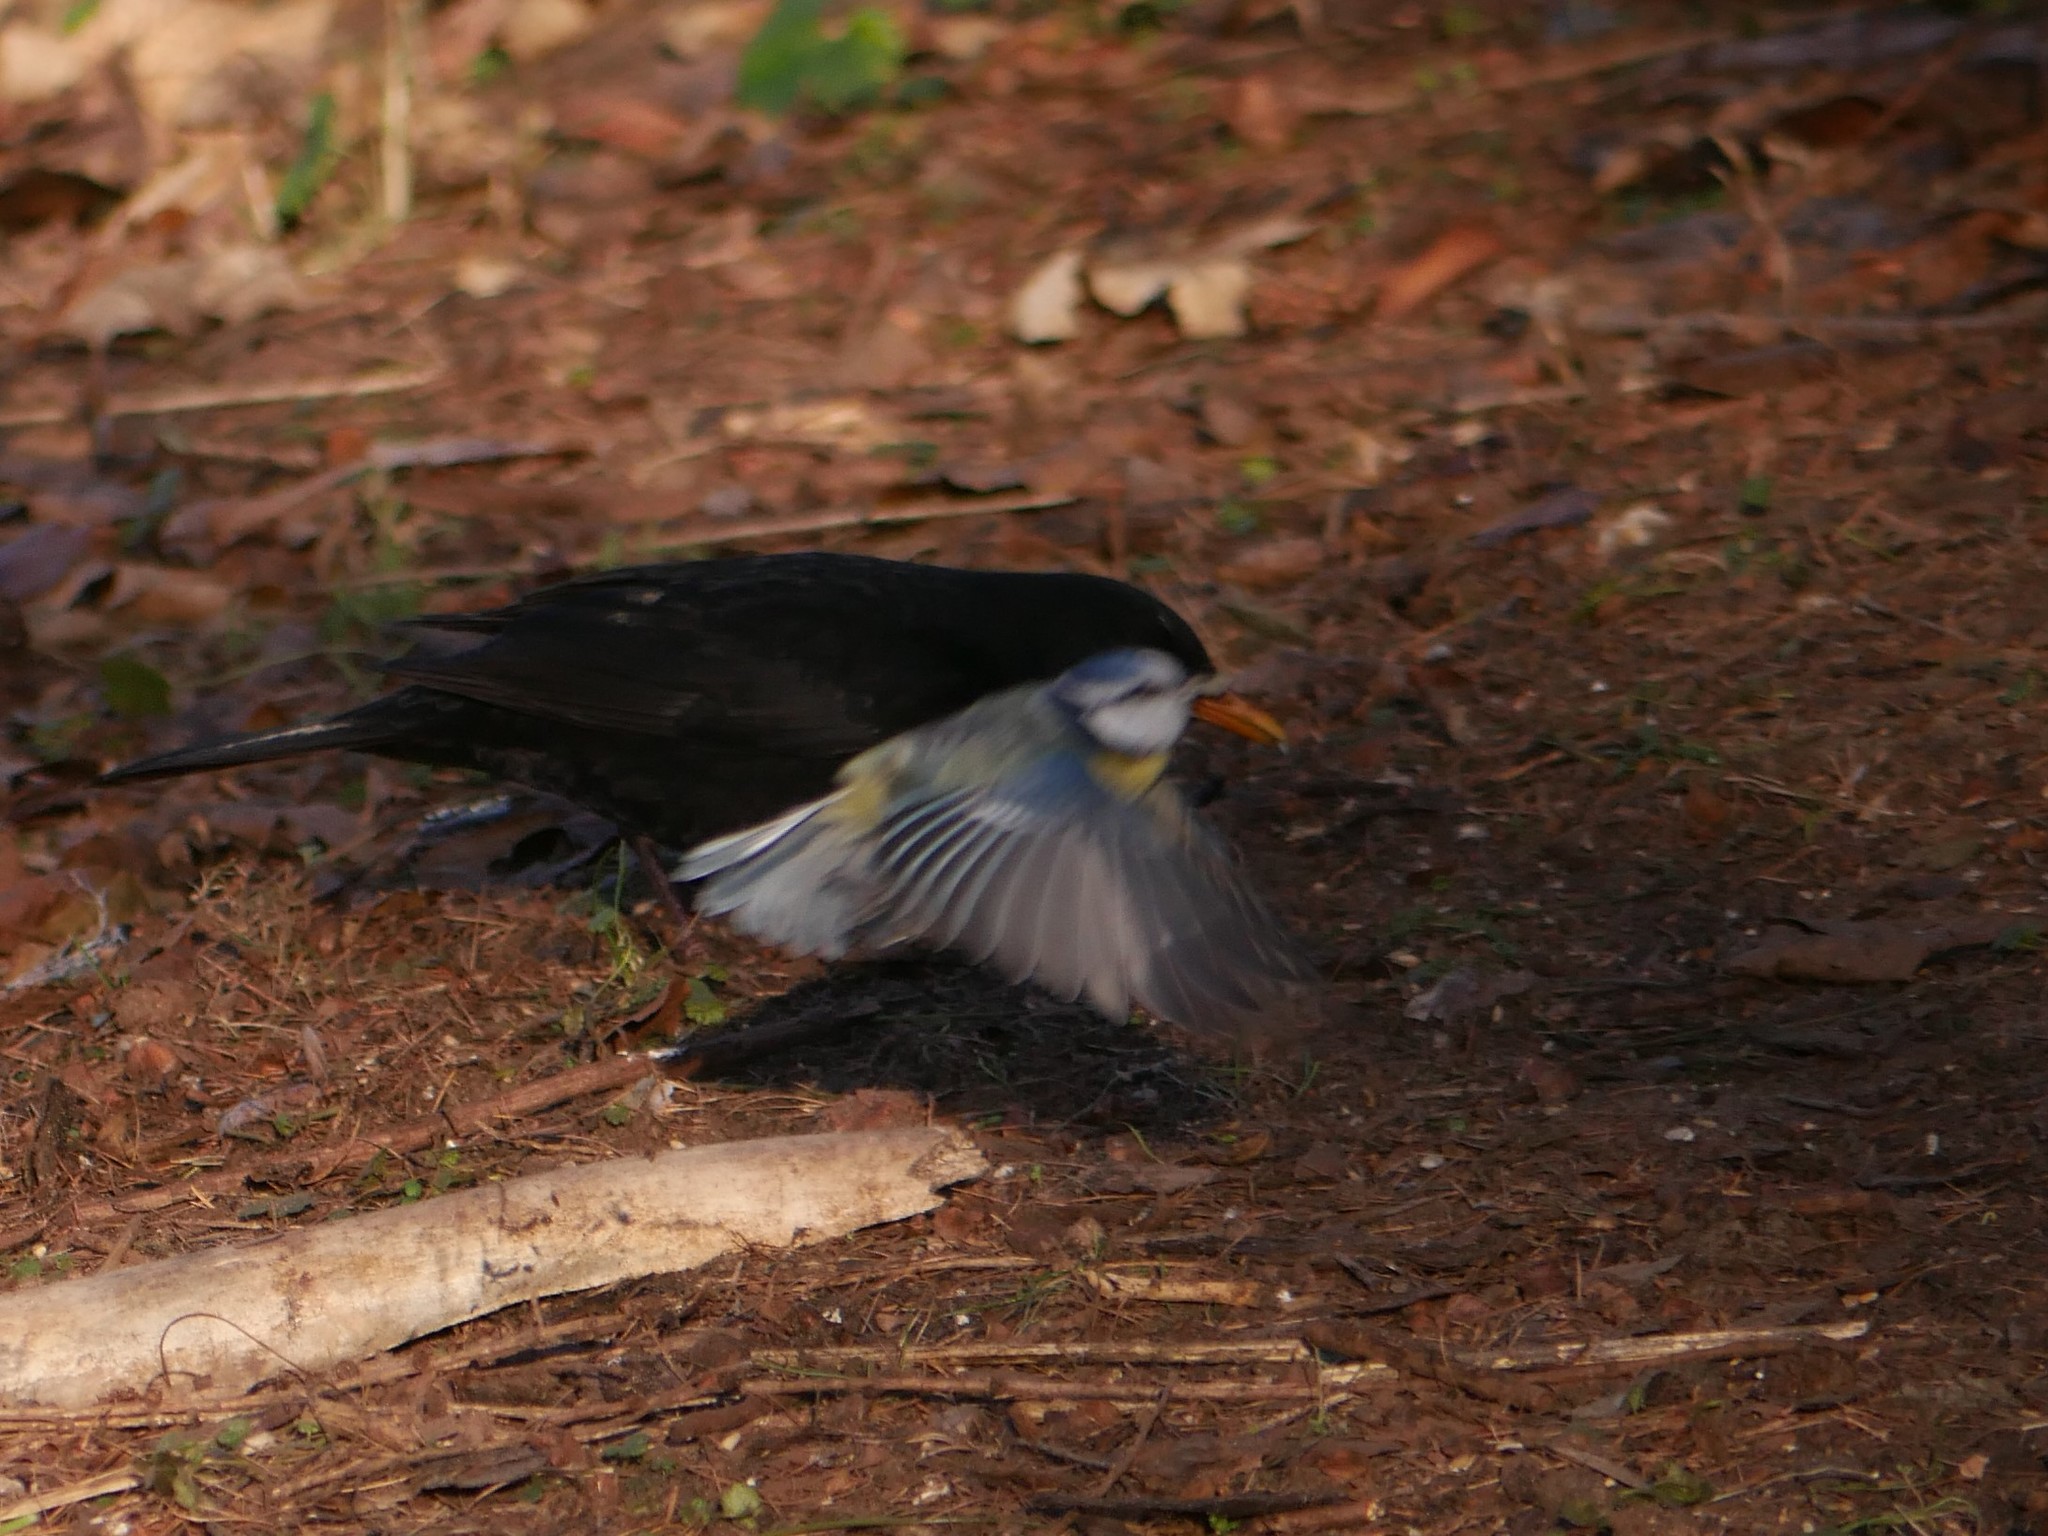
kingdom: Animalia
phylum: Chordata
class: Aves
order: Passeriformes
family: Paridae
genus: Cyanistes
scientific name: Cyanistes caeruleus
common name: Eurasian blue tit
